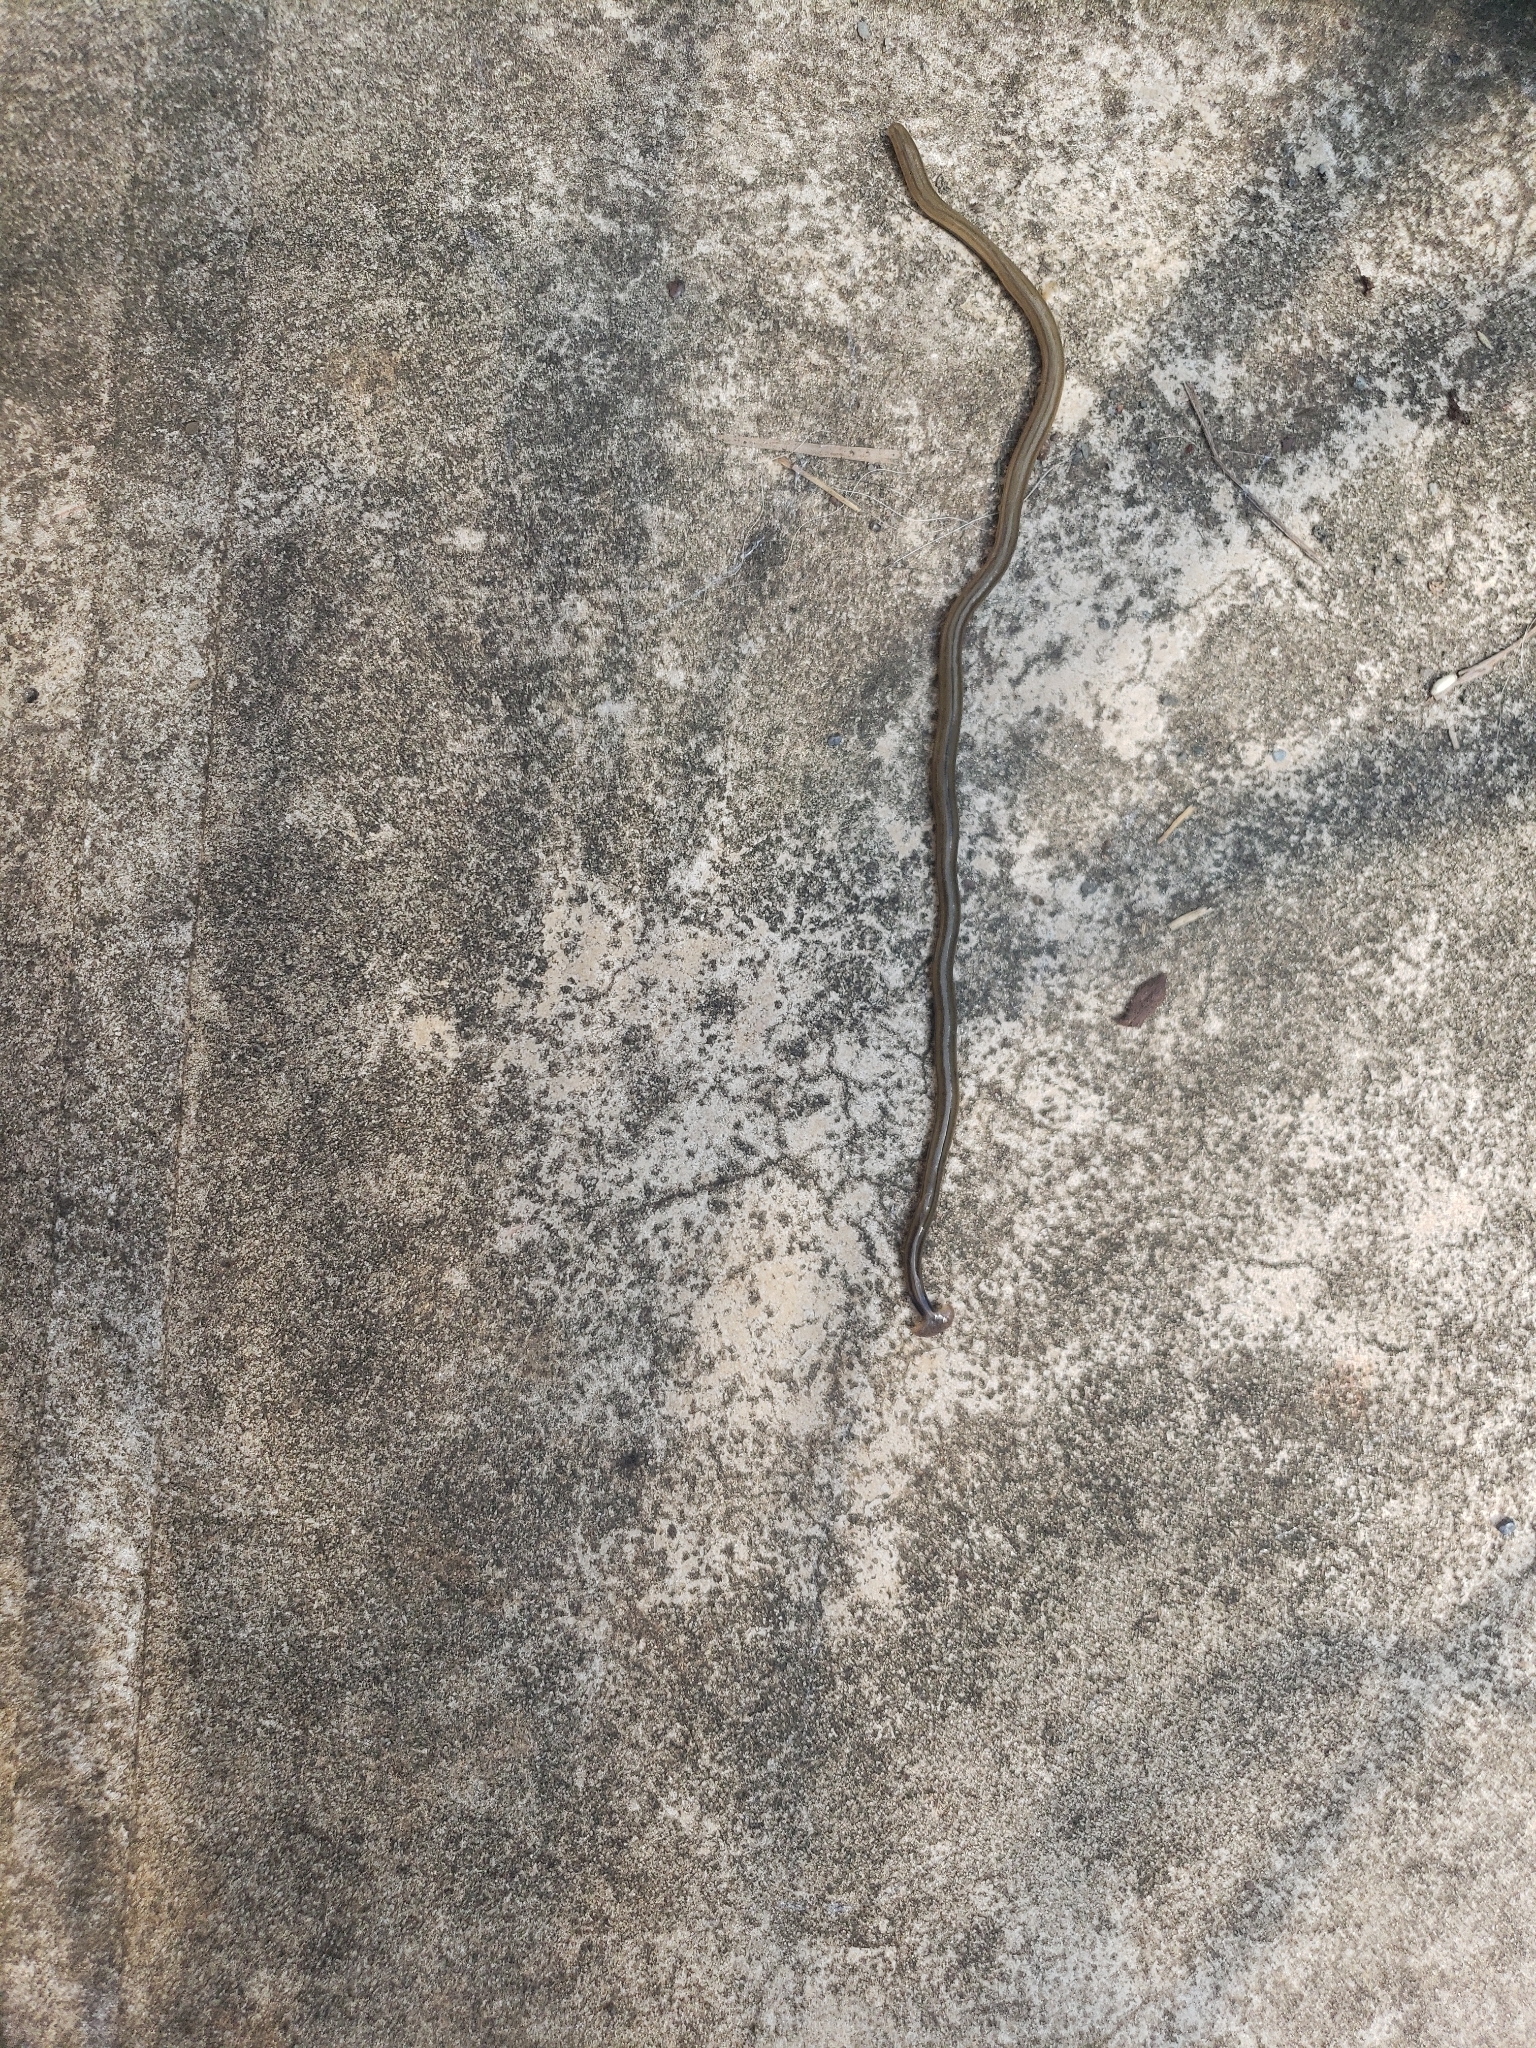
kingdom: Animalia
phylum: Platyhelminthes
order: Tricladida
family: Geoplanidae
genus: Bipalium
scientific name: Bipalium kewense
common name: Hammerhead flatworm
